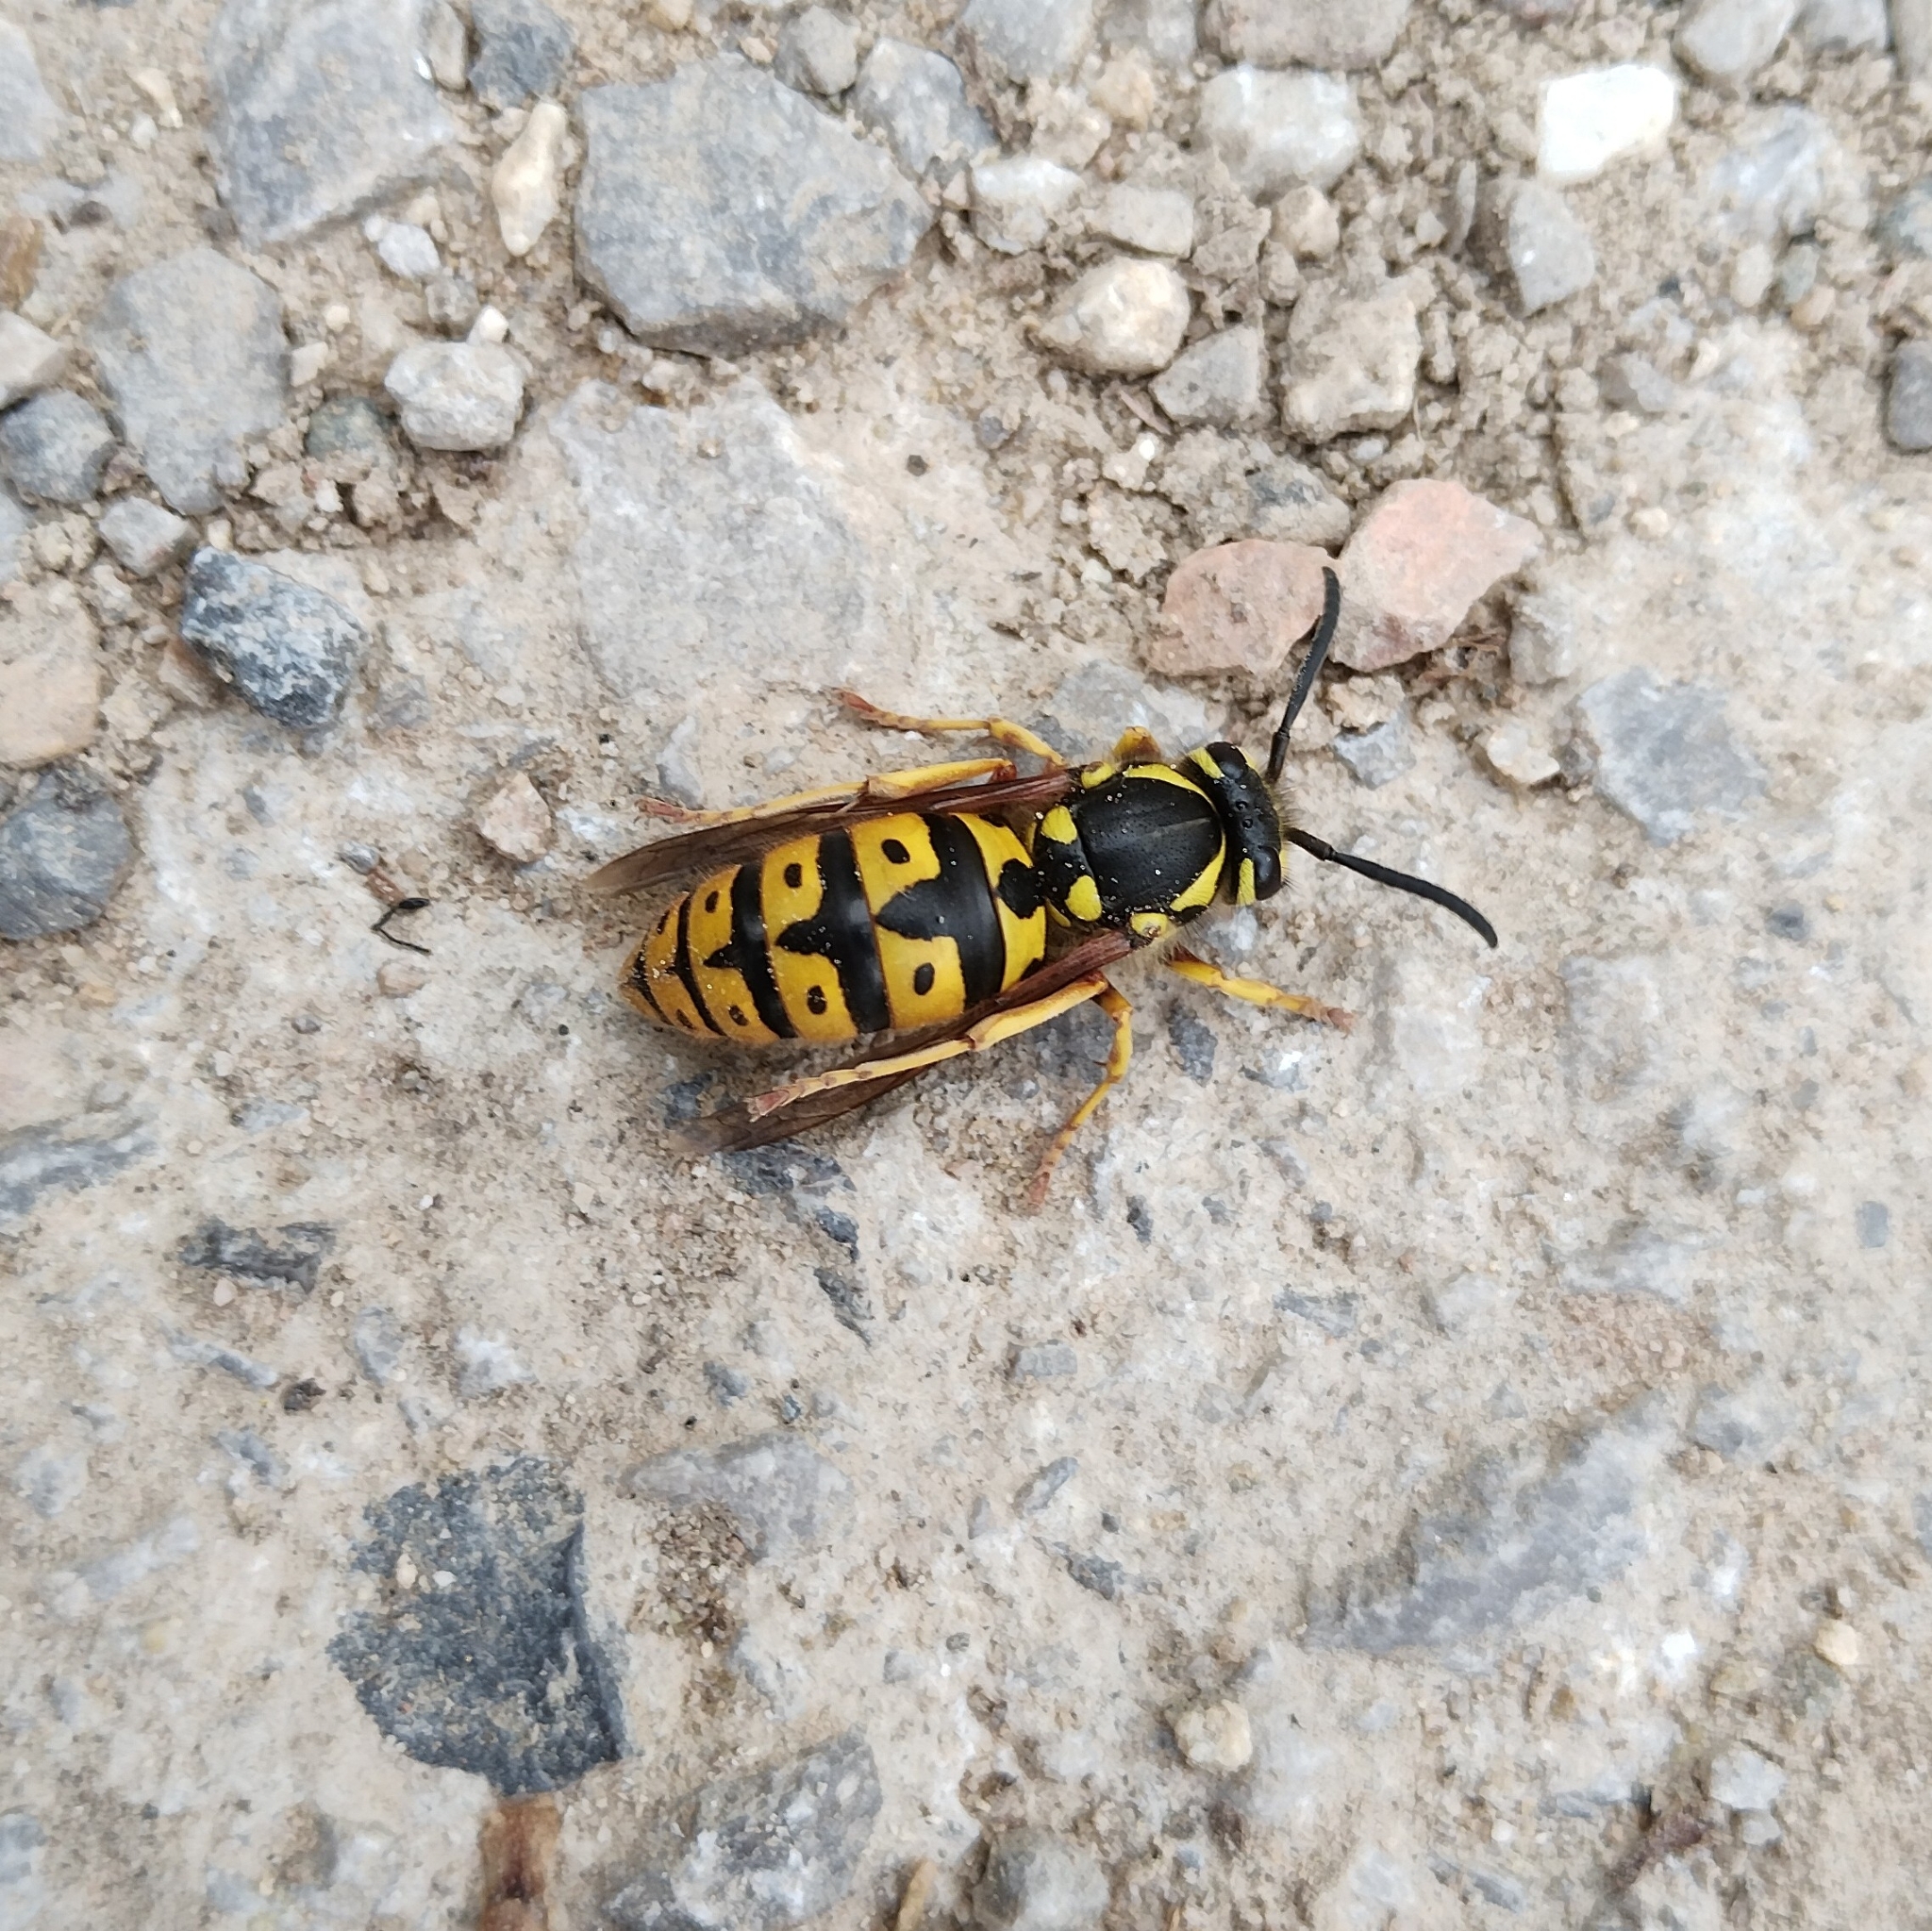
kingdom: Animalia
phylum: Arthropoda
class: Insecta
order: Hymenoptera
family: Vespidae
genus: Vespula
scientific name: Vespula germanica
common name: German wasp
